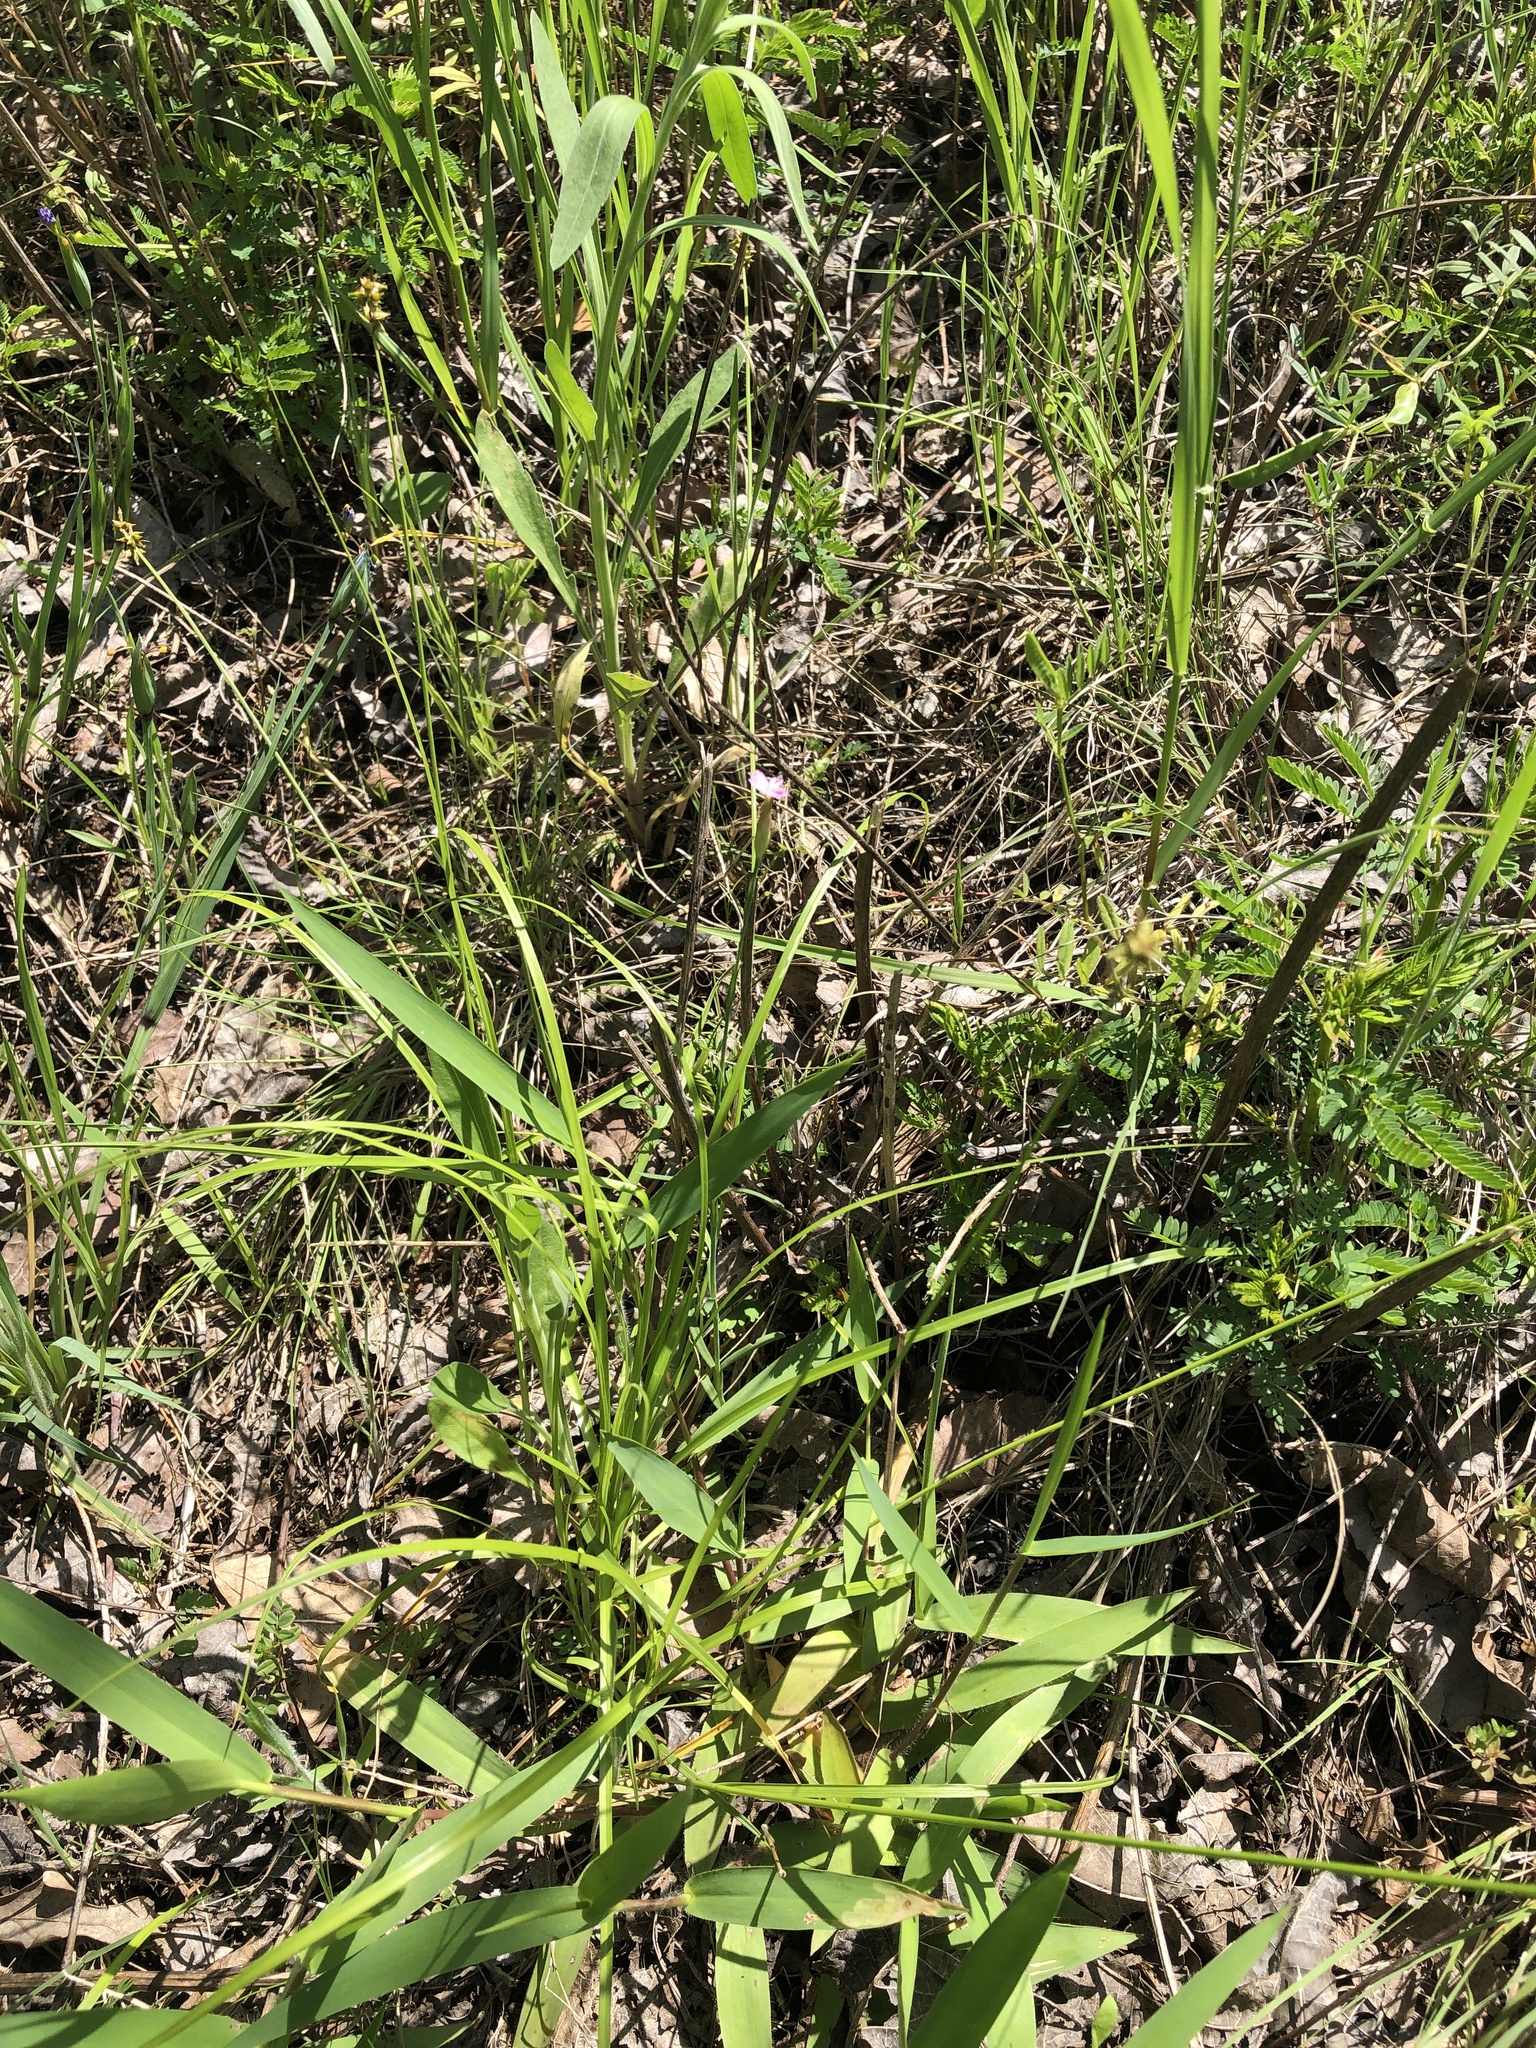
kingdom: Plantae
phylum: Tracheophyta
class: Magnoliopsida
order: Caryophyllales
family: Caryophyllaceae
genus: Petrorhagia
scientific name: Petrorhagia dubia
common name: Hairypink
